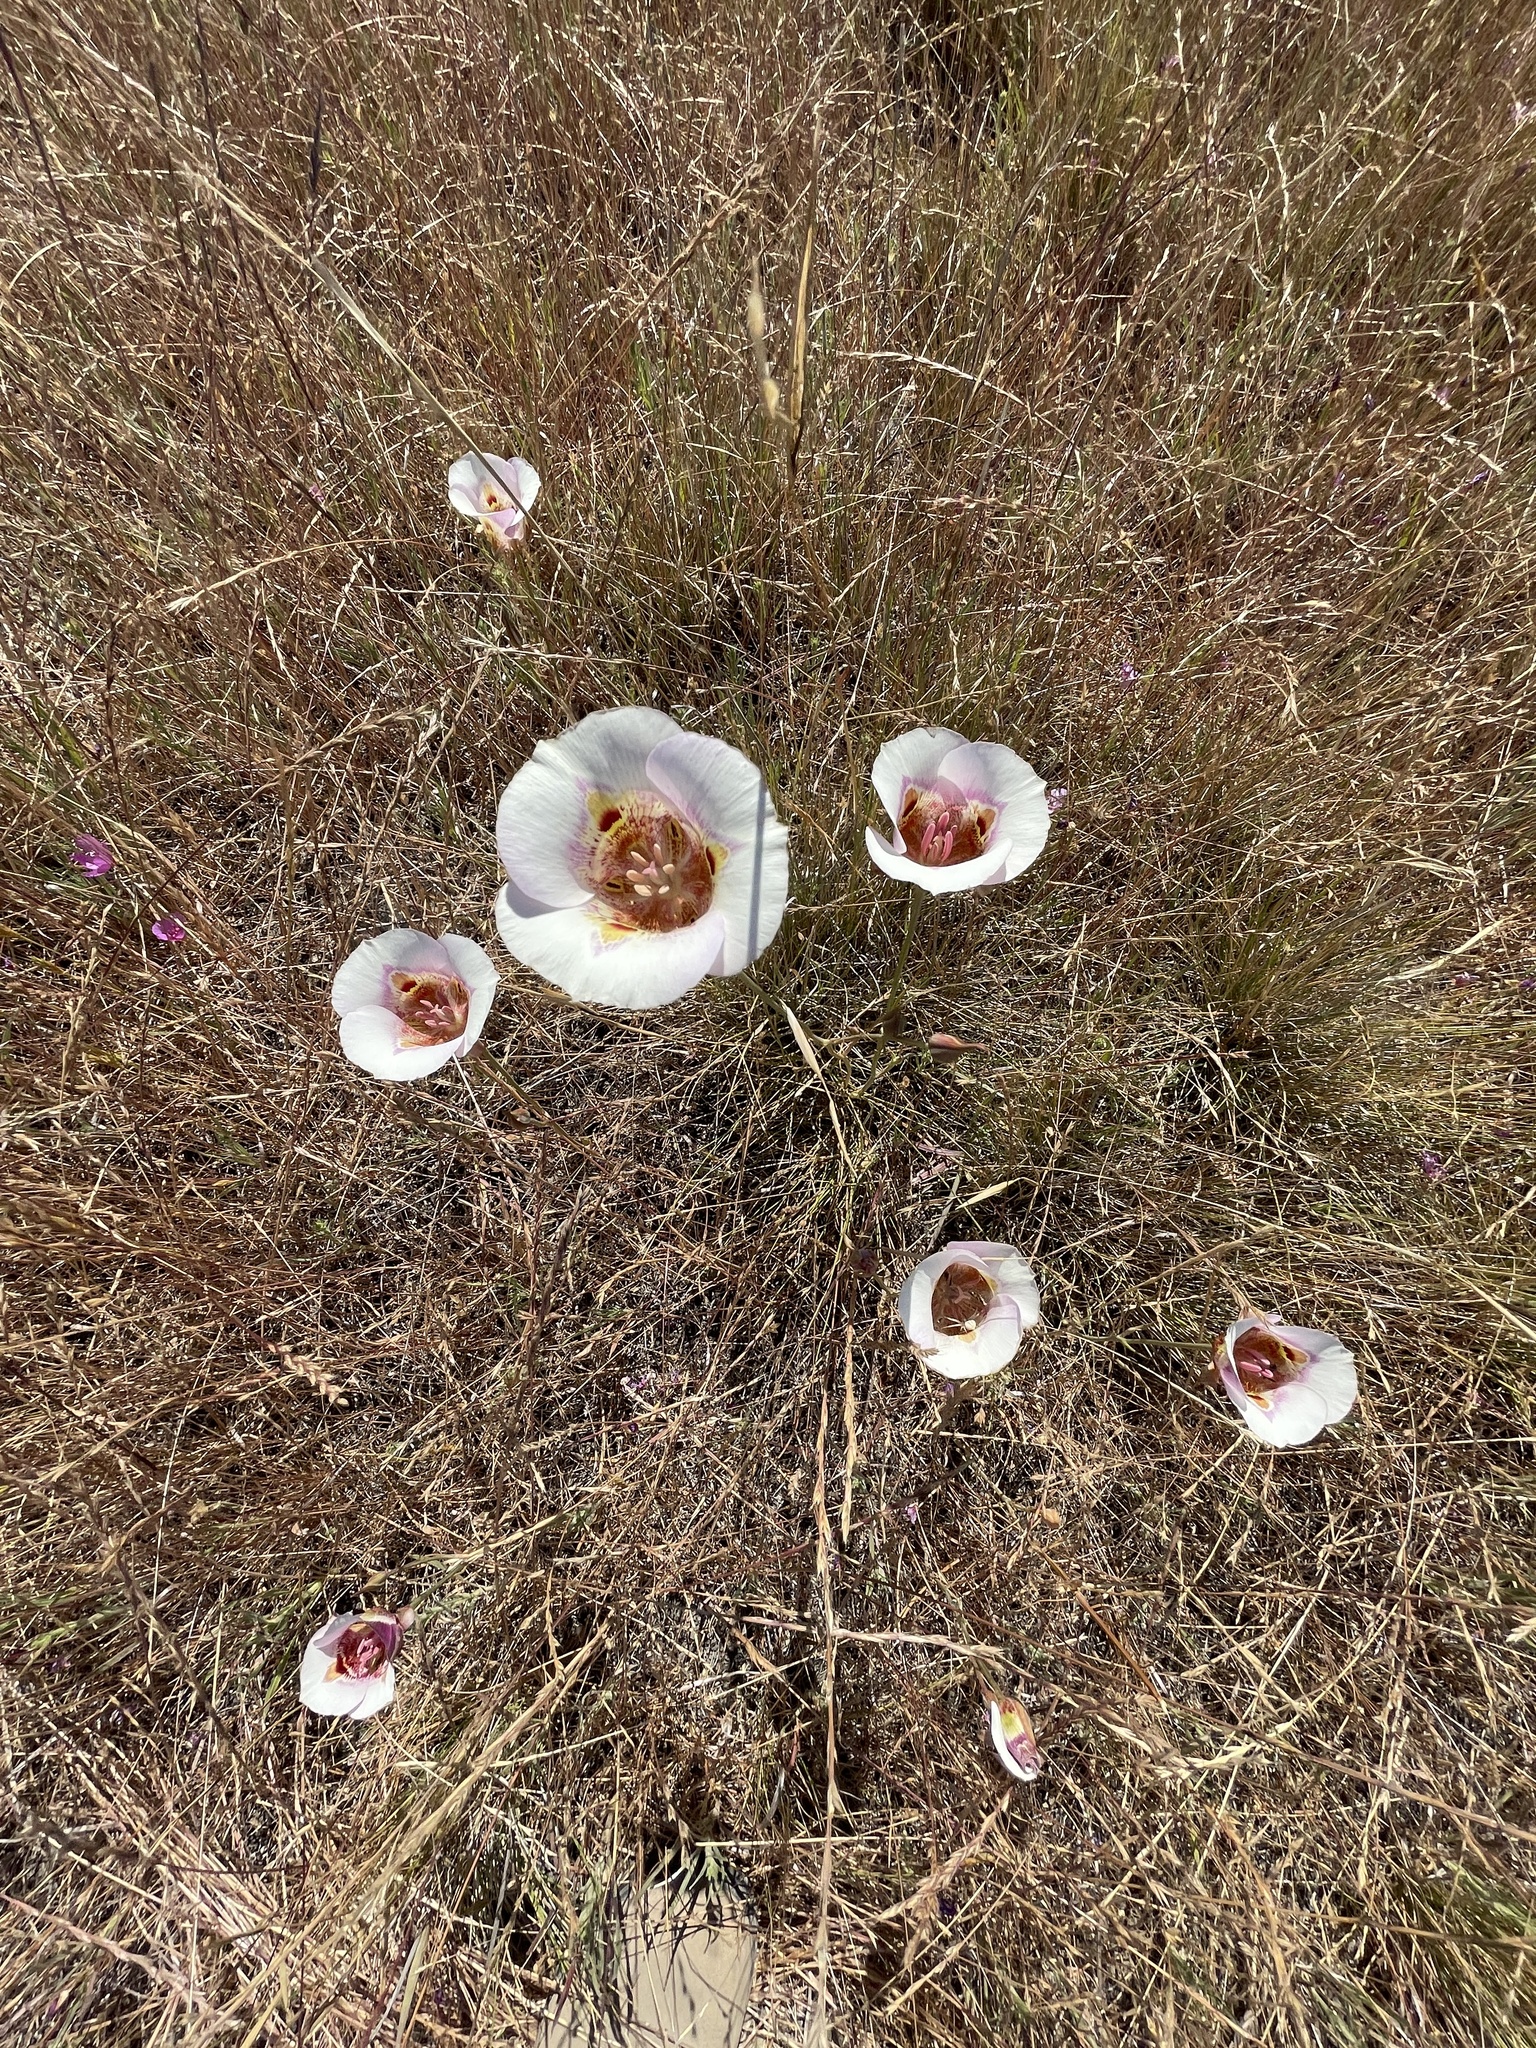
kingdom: Plantae
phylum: Tracheophyta
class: Liliopsida
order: Liliales
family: Liliaceae
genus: Calochortus
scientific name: Calochortus argillosus
